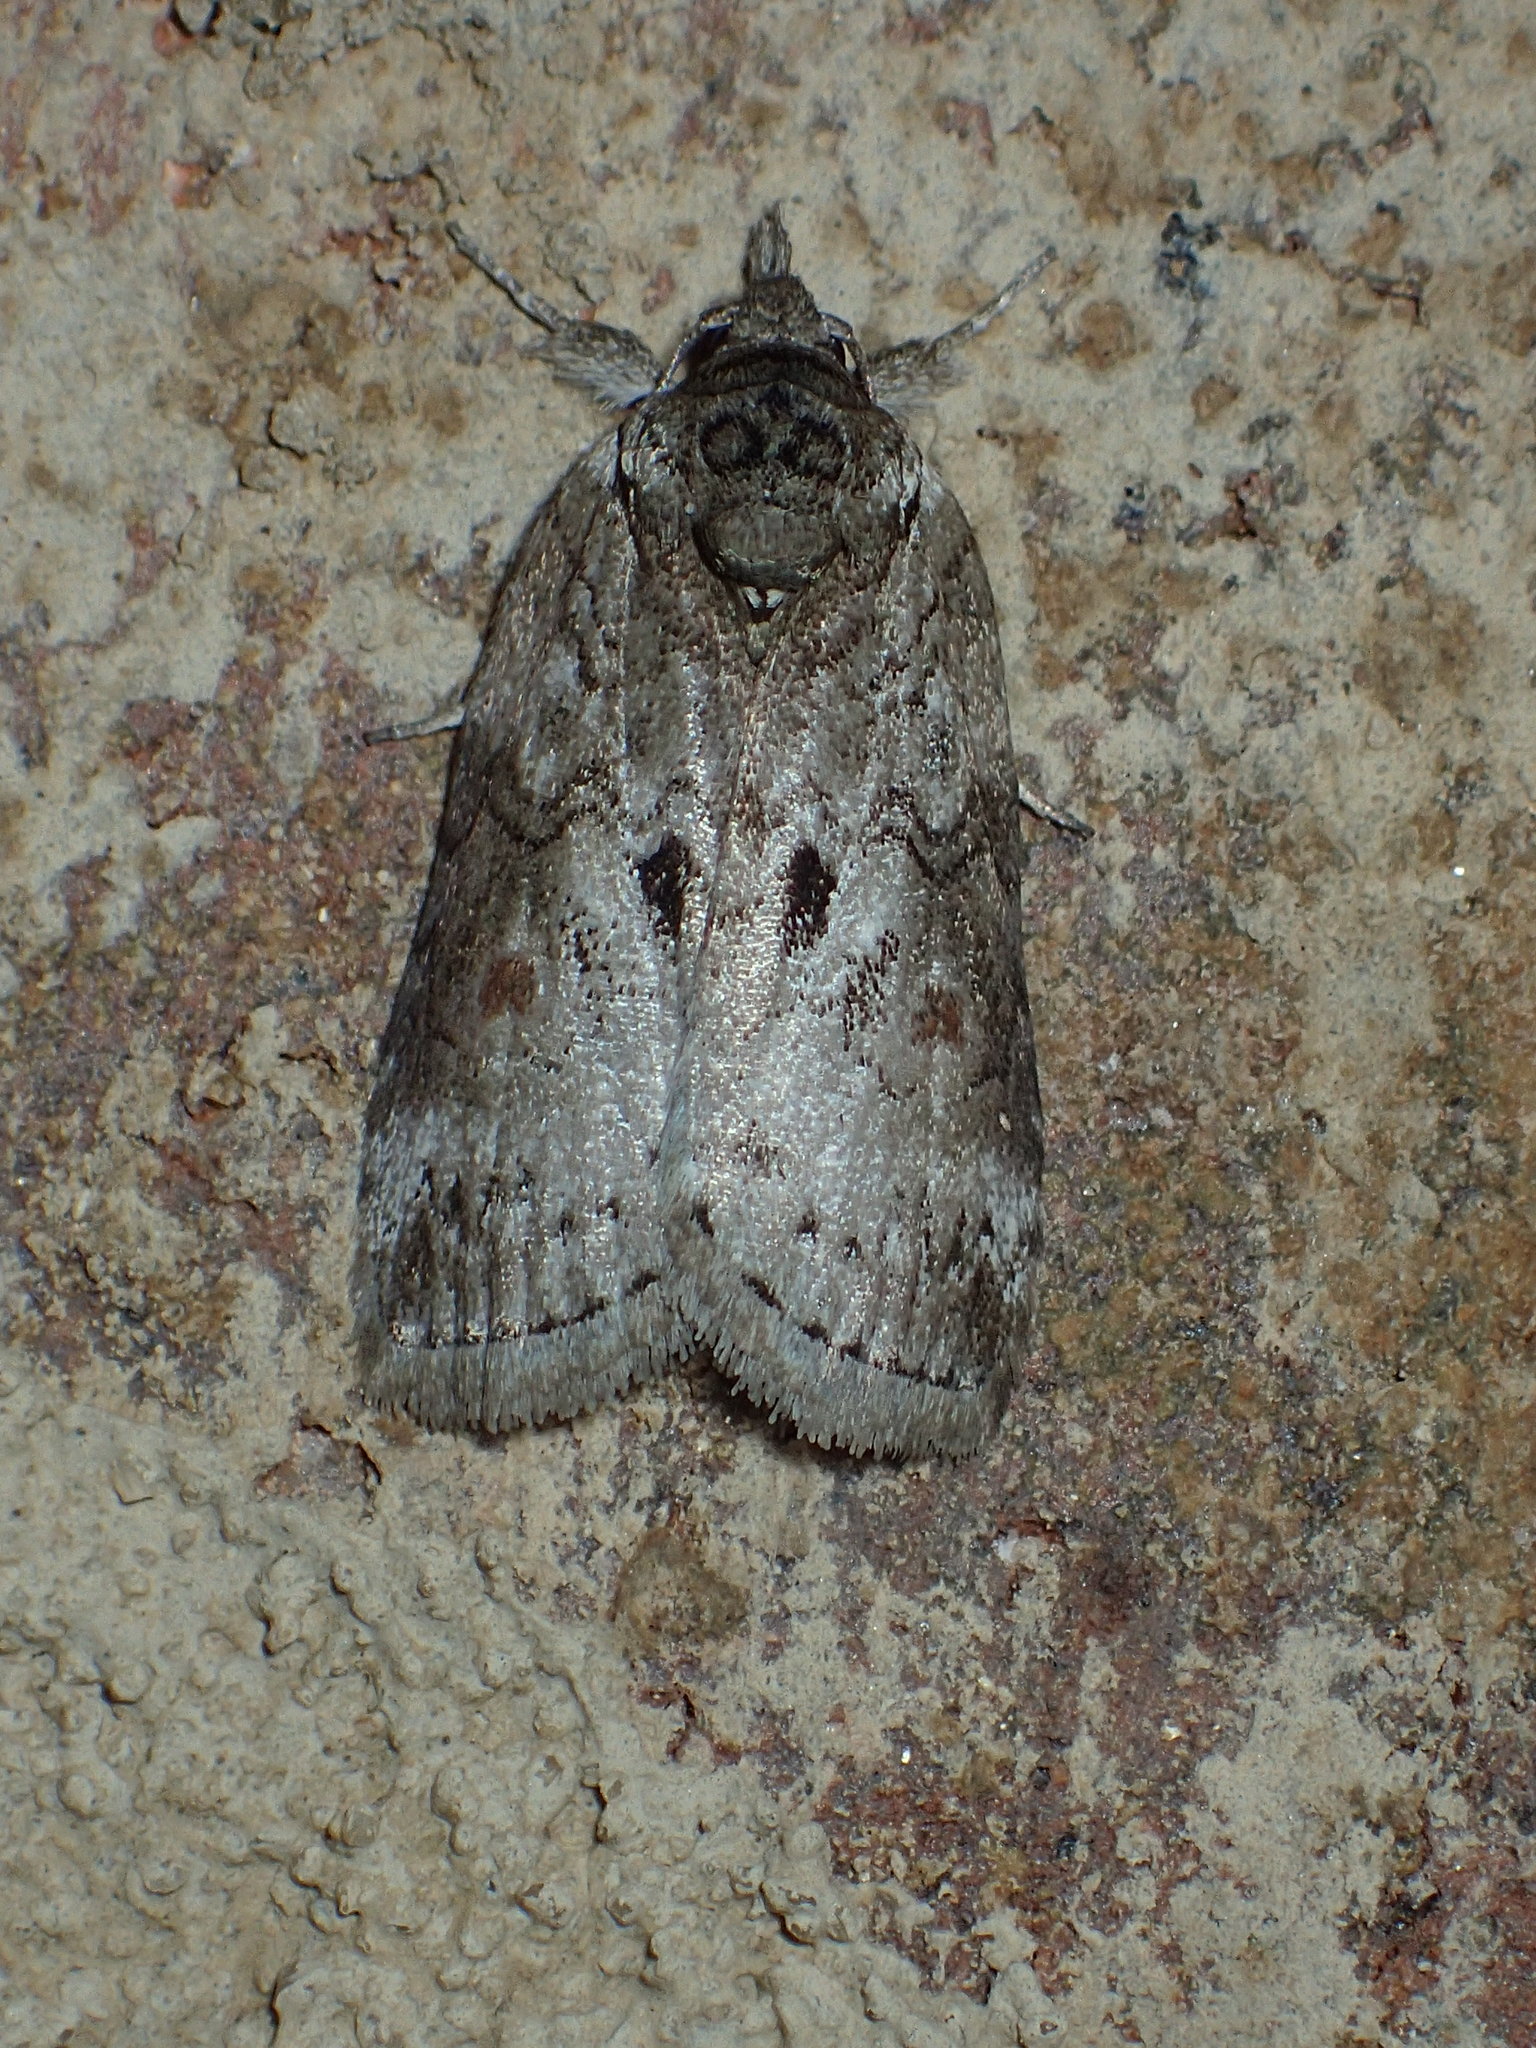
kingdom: Animalia
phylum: Arthropoda
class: Insecta
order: Lepidoptera
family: Nolidae
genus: Nycteola
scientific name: Nycteola metaspilella
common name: Forgotten frigid owlet
